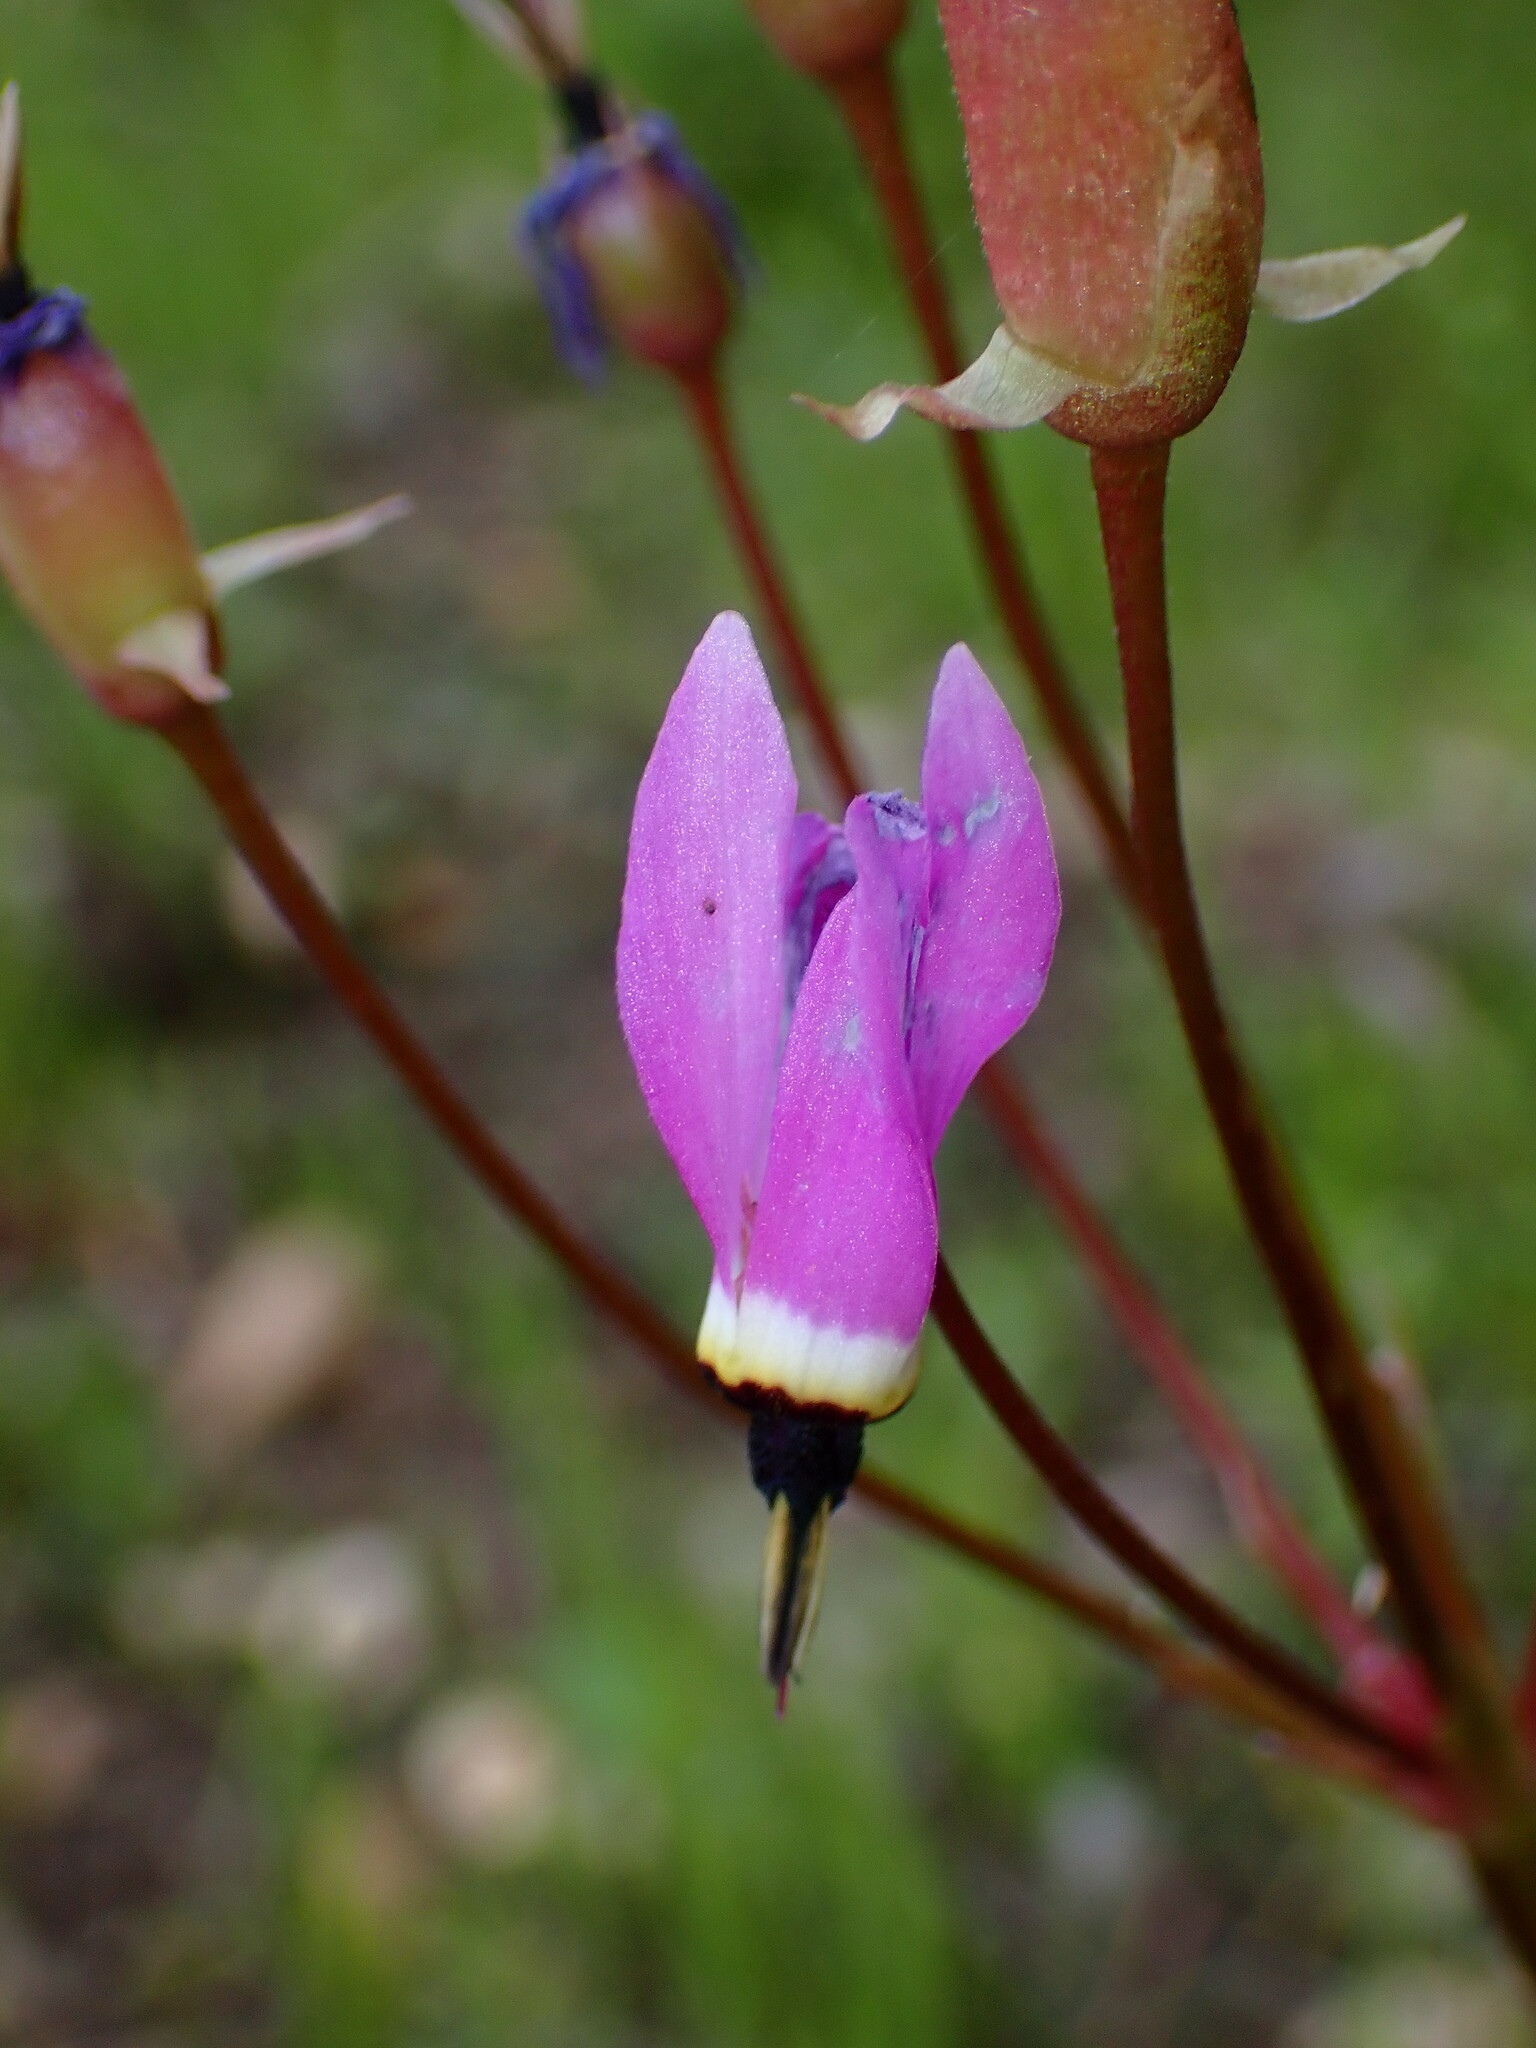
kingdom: Plantae
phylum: Tracheophyta
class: Magnoliopsida
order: Ericales
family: Primulaceae
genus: Dodecatheon
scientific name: Dodecatheon hendersonii
